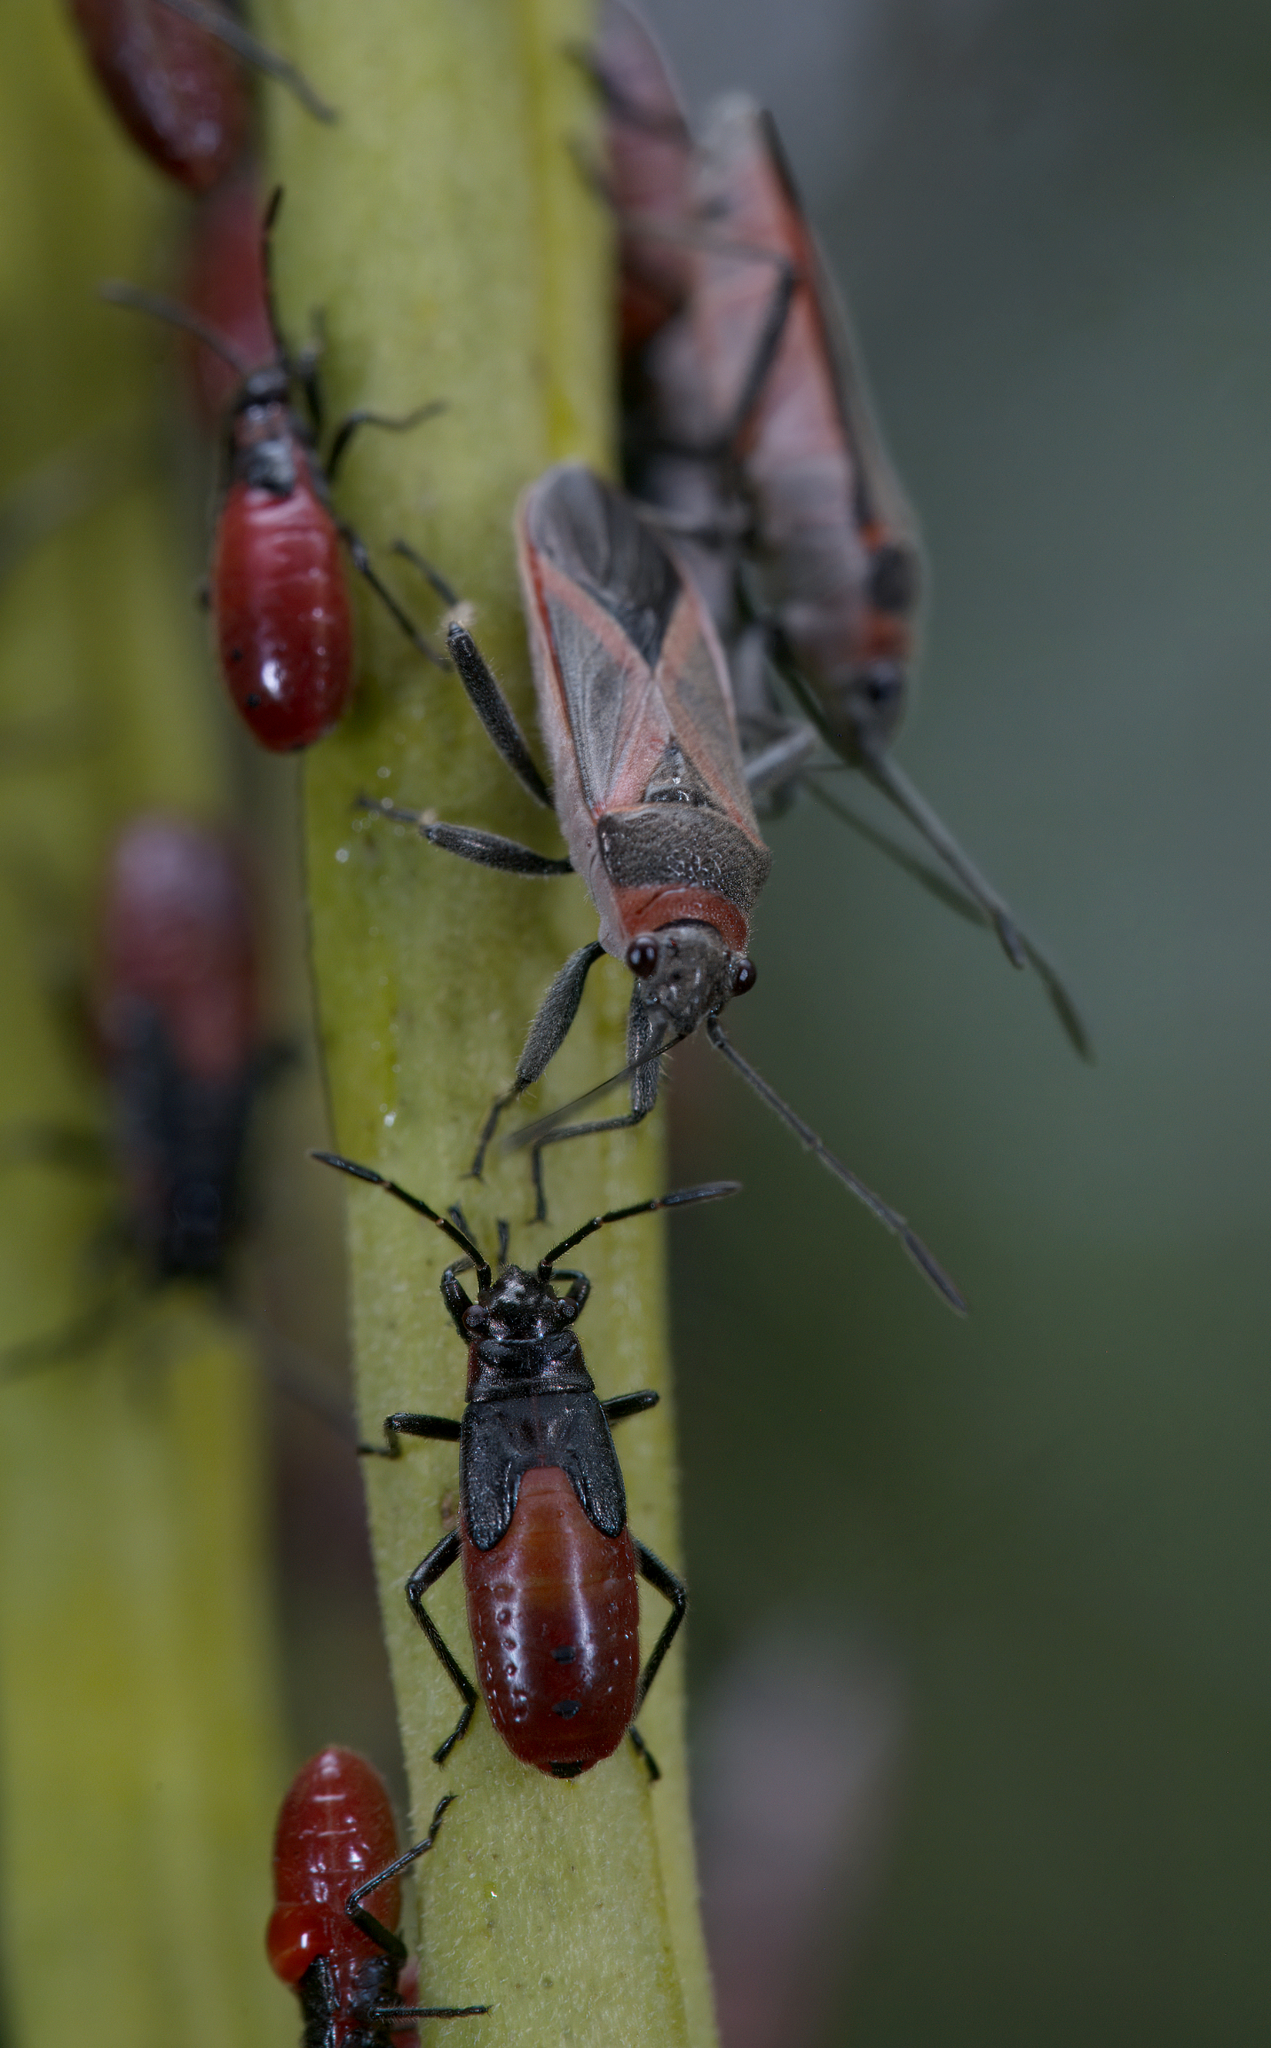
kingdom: Animalia
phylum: Arthropoda
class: Insecta
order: Hemiptera
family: Lygaeidae
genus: Arocatus
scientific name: Arocatus rusticus
